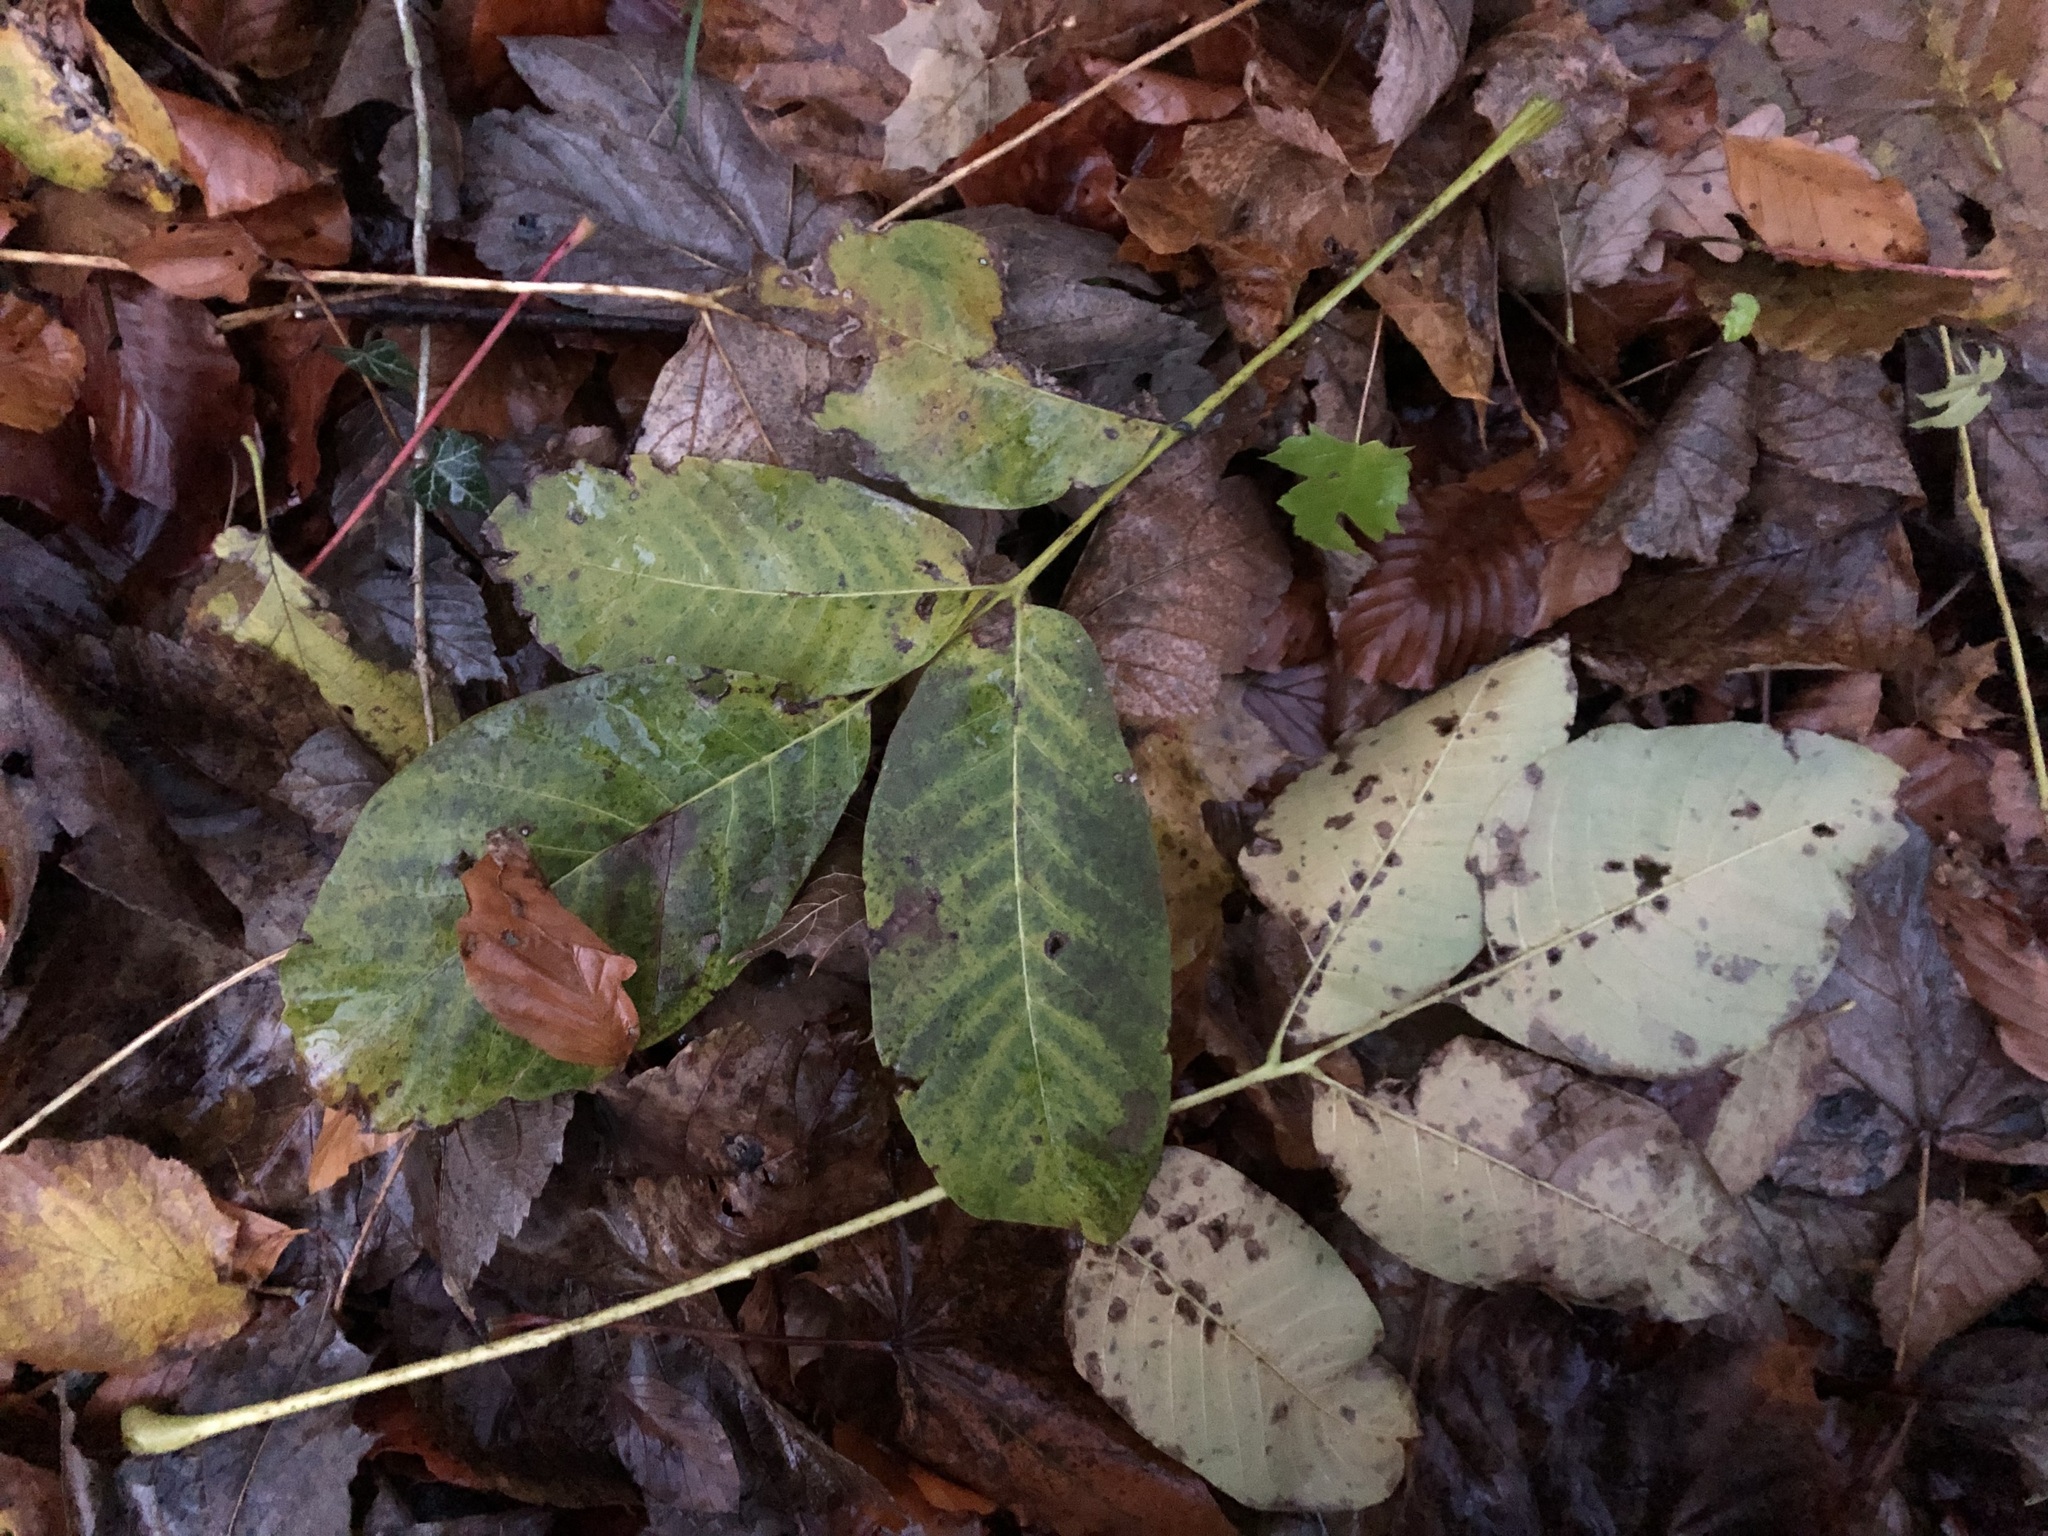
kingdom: Plantae
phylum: Tracheophyta
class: Magnoliopsida
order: Fagales
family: Juglandaceae
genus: Juglans
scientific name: Juglans regia
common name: Walnut
